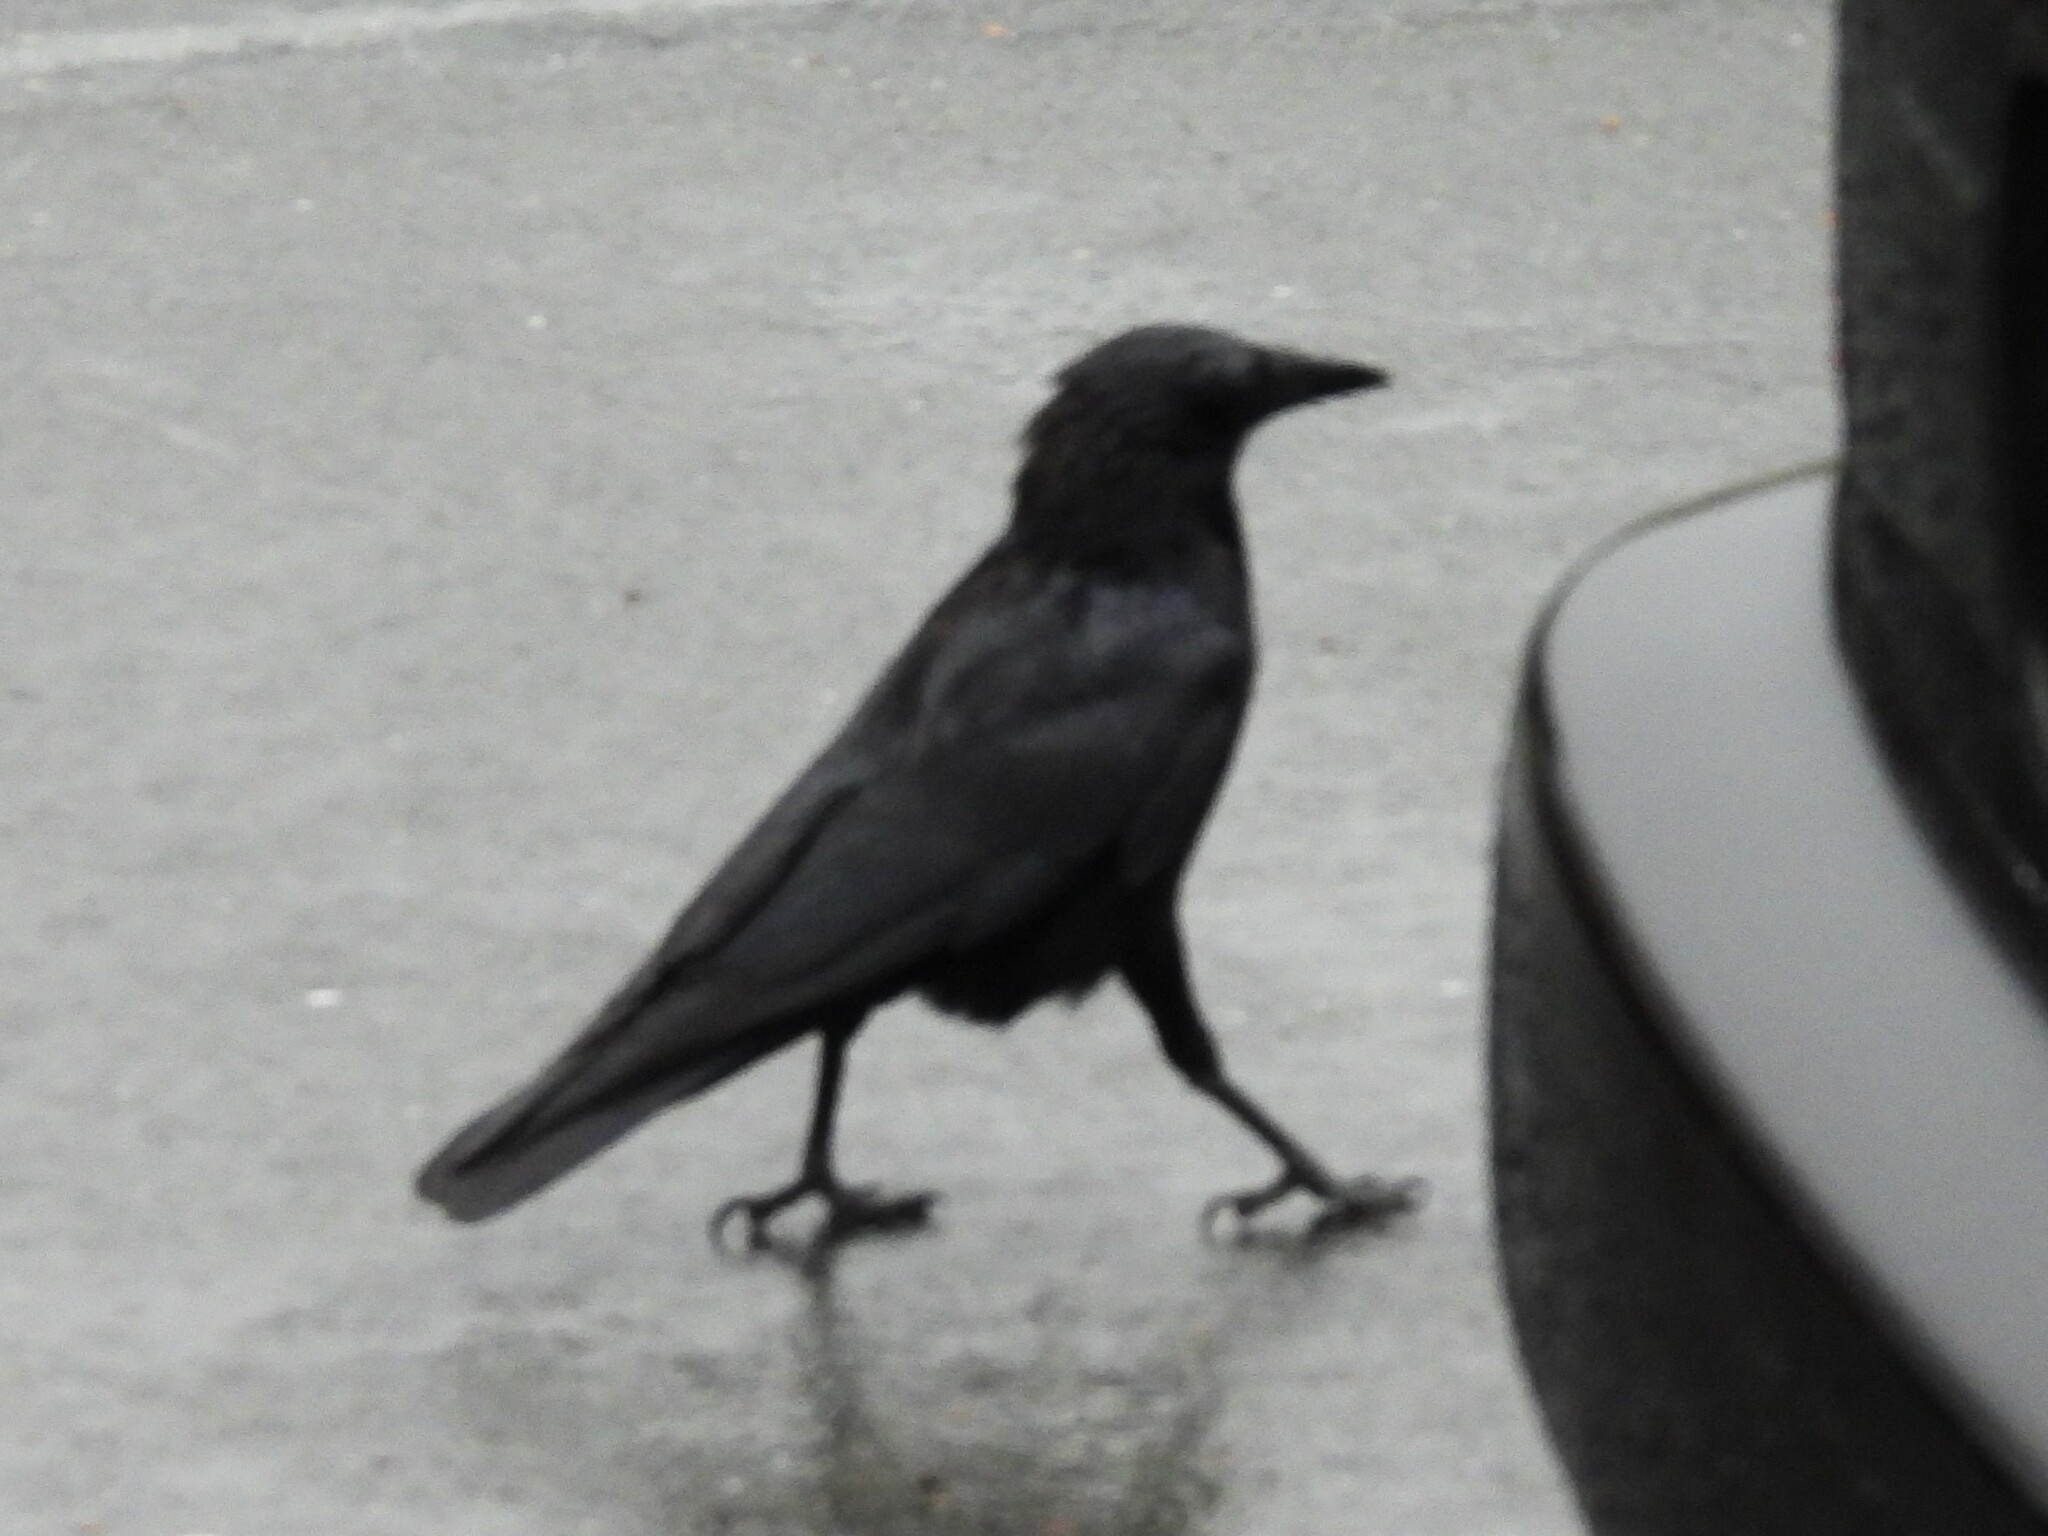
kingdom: Animalia
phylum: Chordata
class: Aves
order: Passeriformes
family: Corvidae
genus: Corvus
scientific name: Corvus brachyrhynchos
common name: American crow
